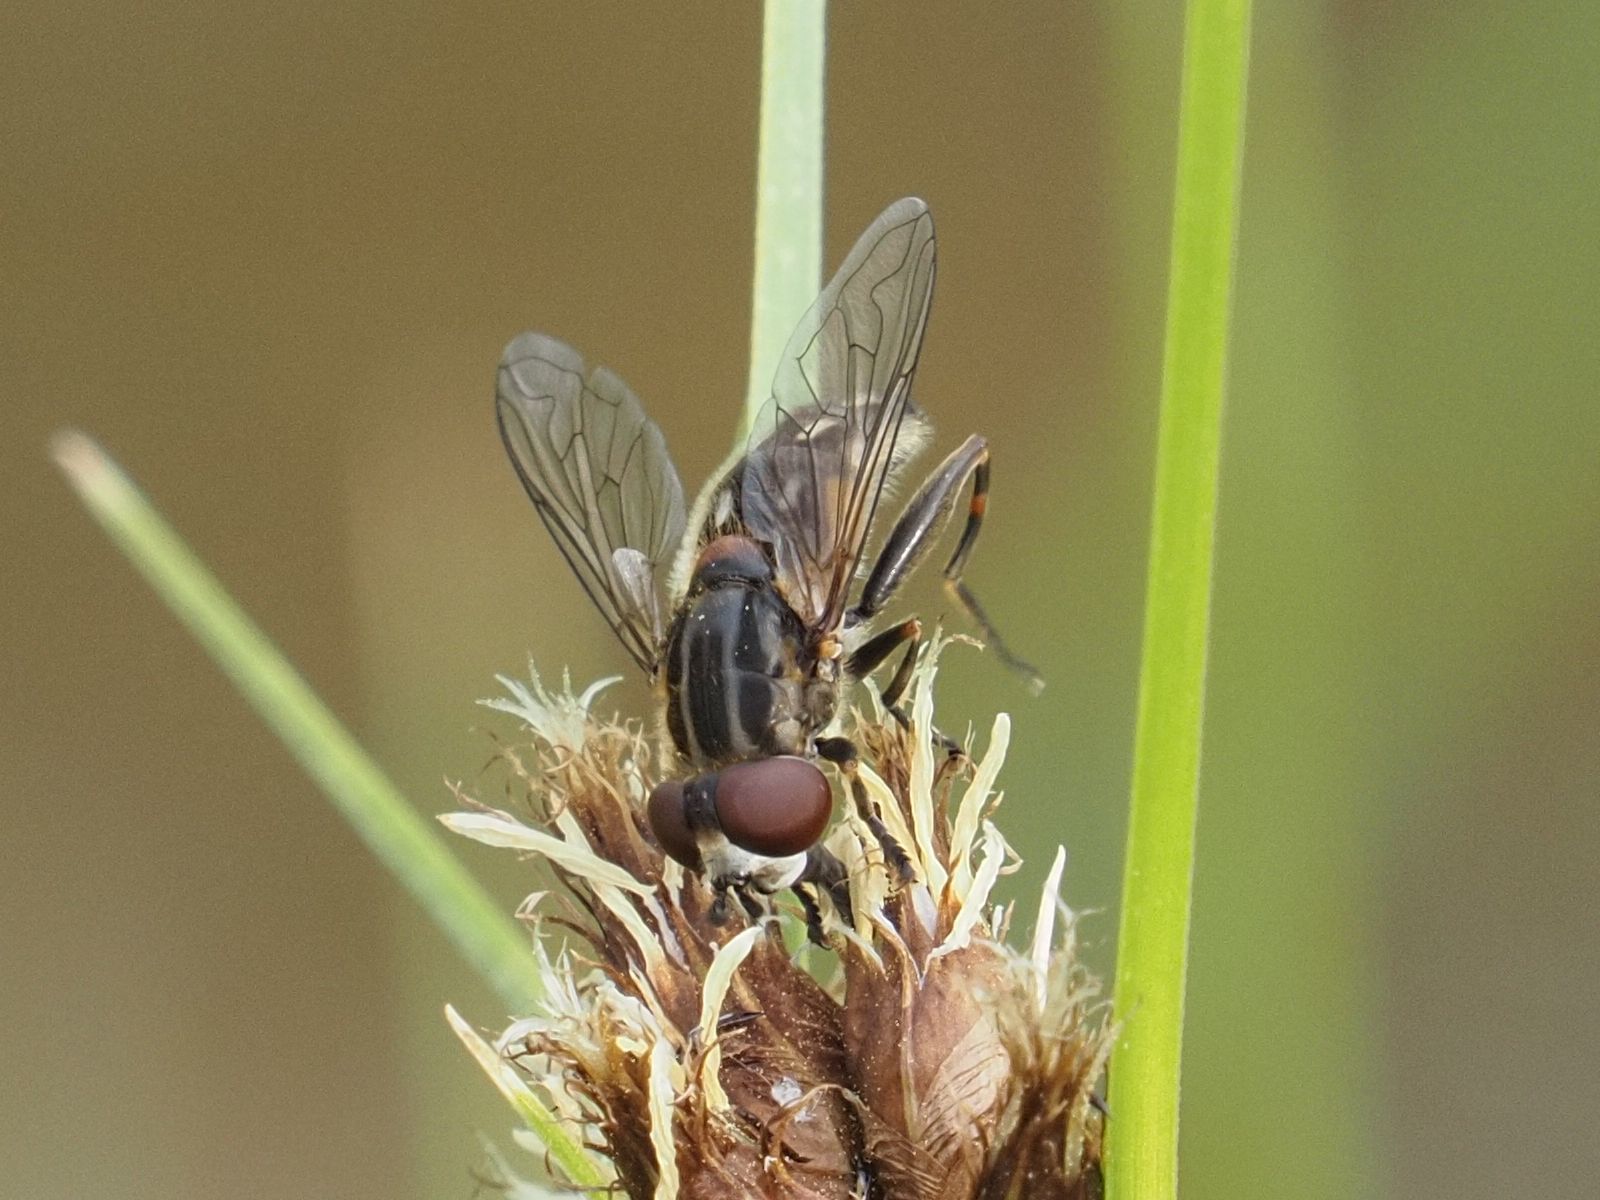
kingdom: Animalia
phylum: Arthropoda
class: Insecta
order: Diptera
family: Syrphidae
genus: Lejops
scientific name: Lejops vittatus
